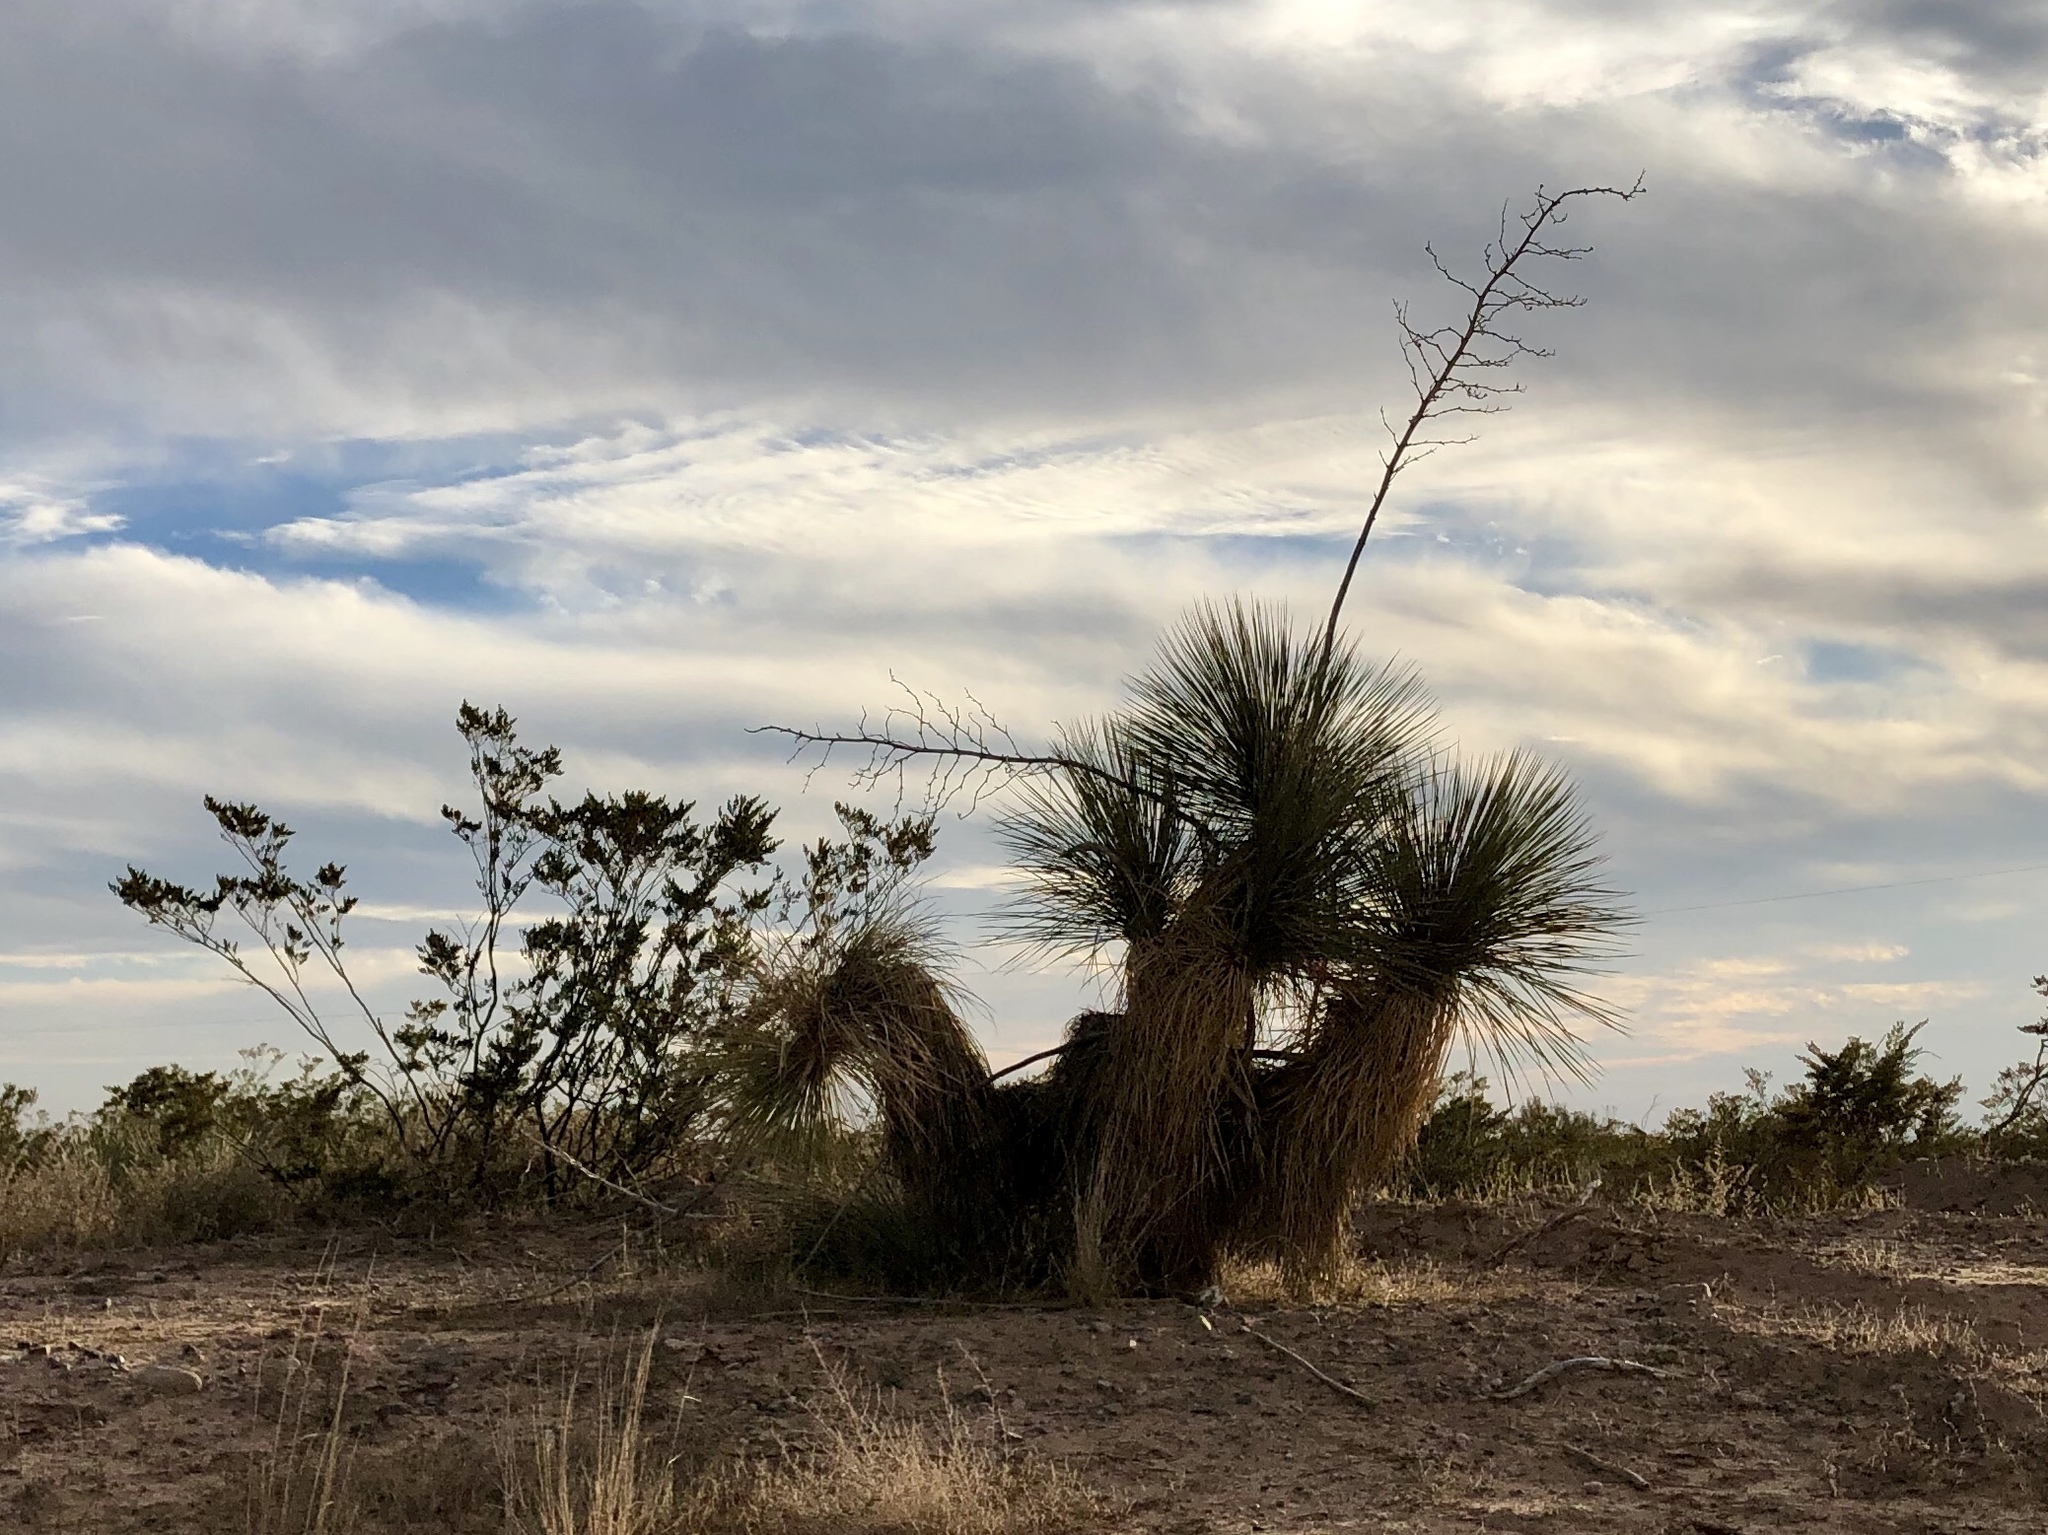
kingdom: Plantae
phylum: Tracheophyta
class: Liliopsida
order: Asparagales
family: Asparagaceae
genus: Yucca
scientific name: Yucca elata
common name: Palmella
